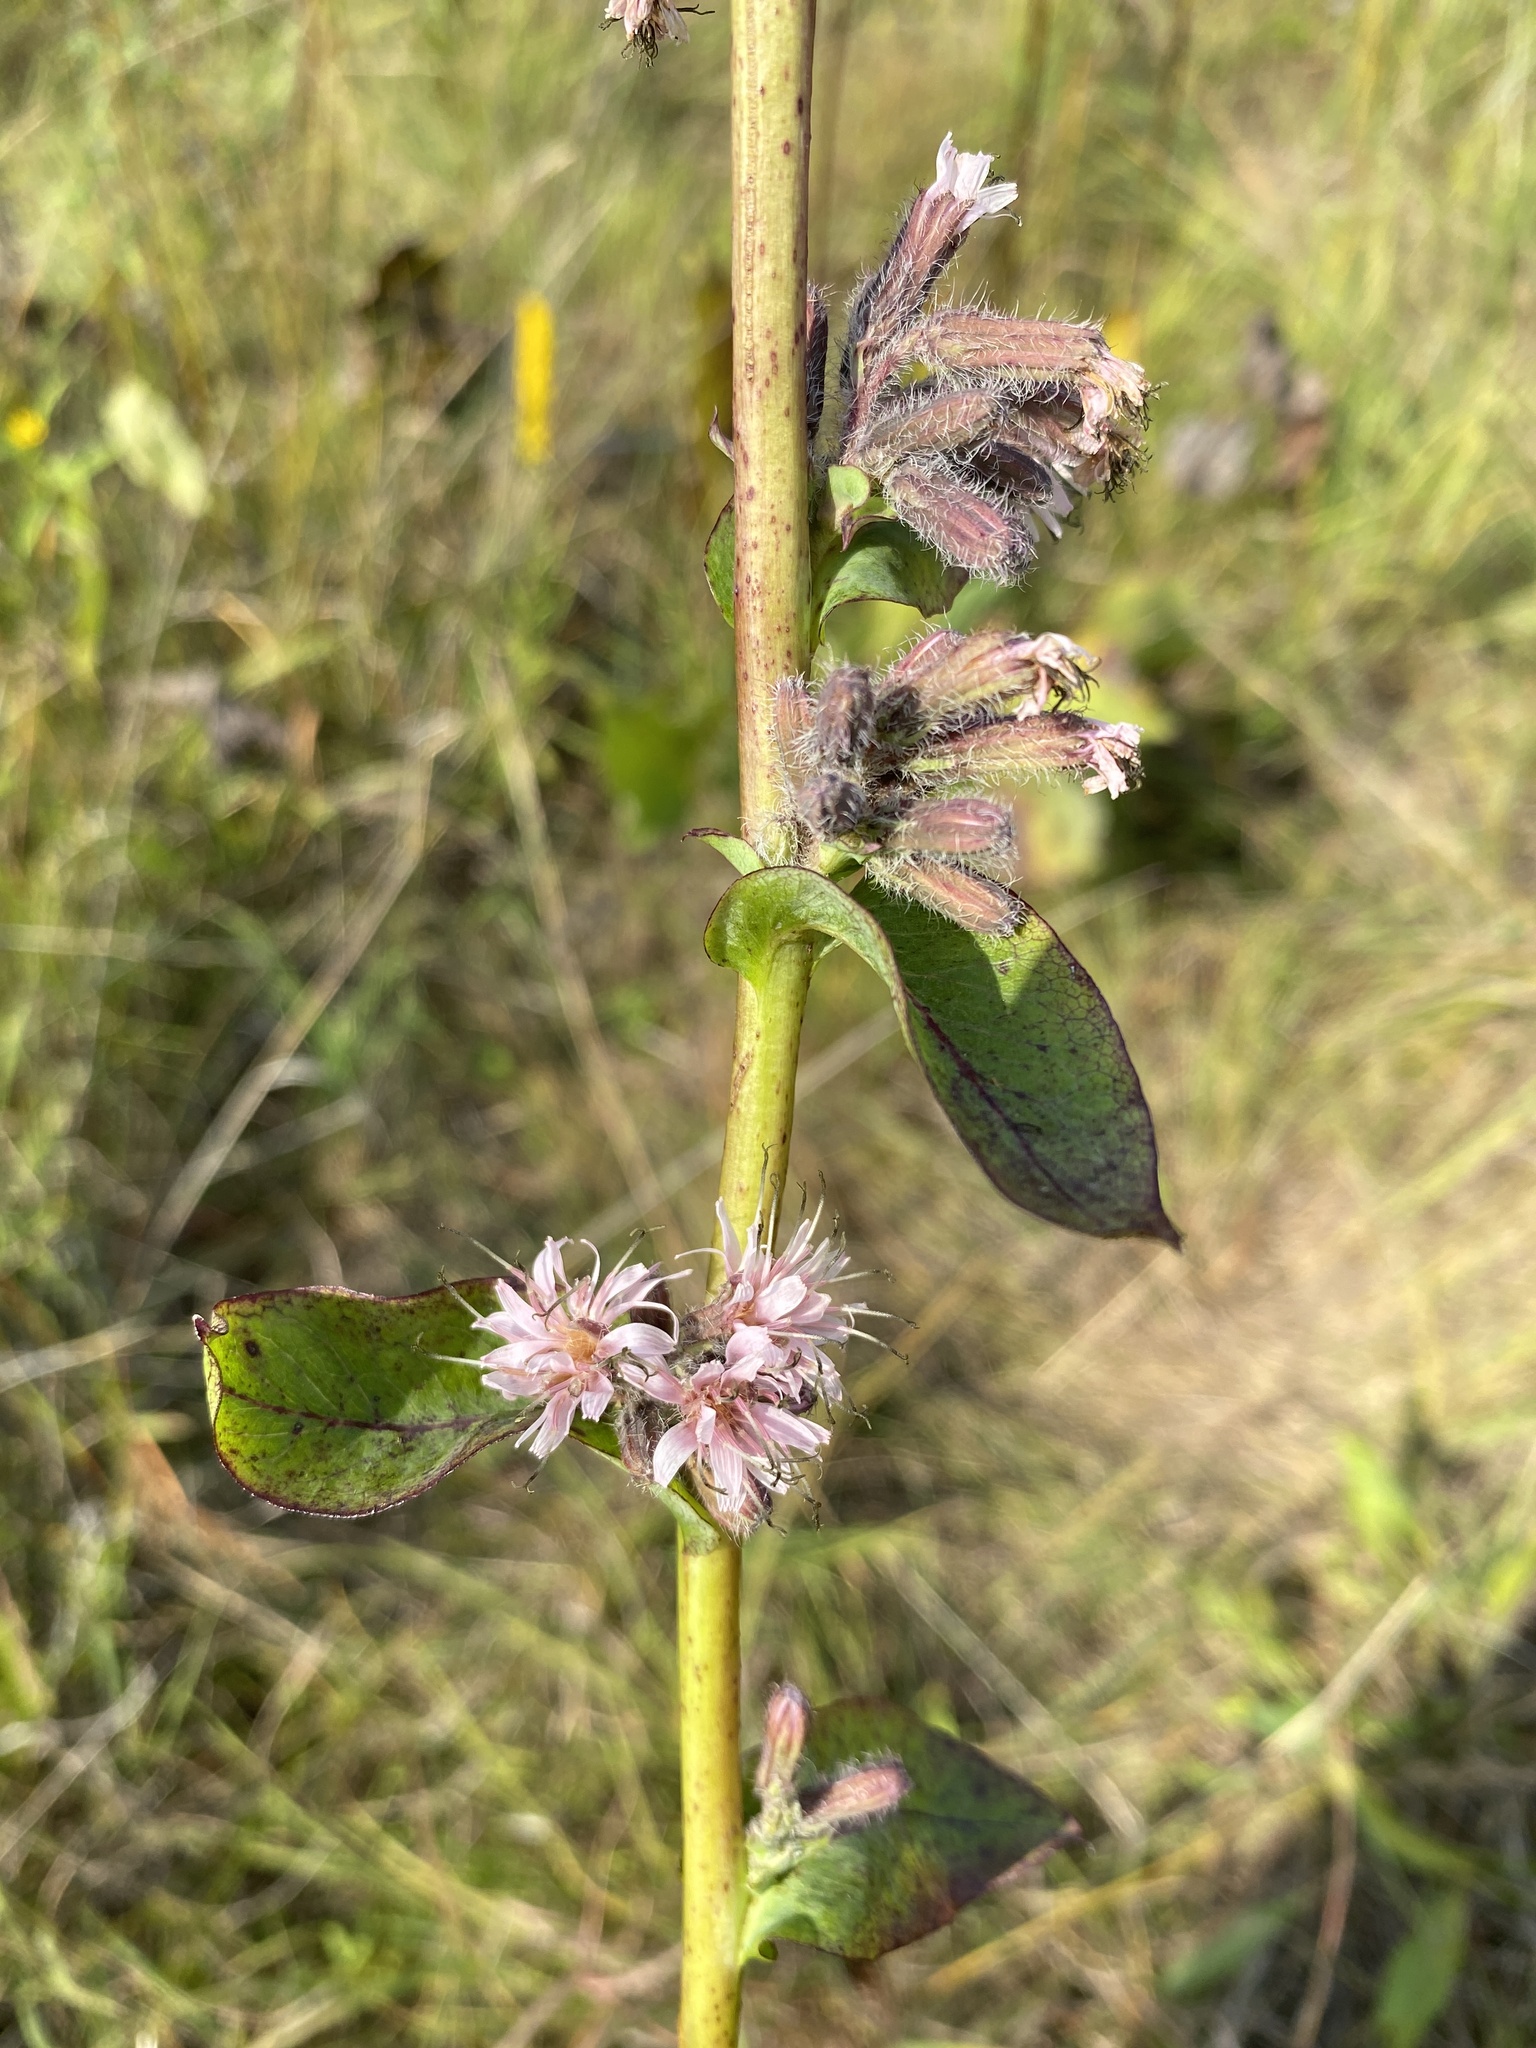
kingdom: Plantae
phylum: Tracheophyta
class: Magnoliopsida
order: Asterales
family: Asteraceae
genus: Nabalus
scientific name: Nabalus racemosus
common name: Glaucous white lettuce
